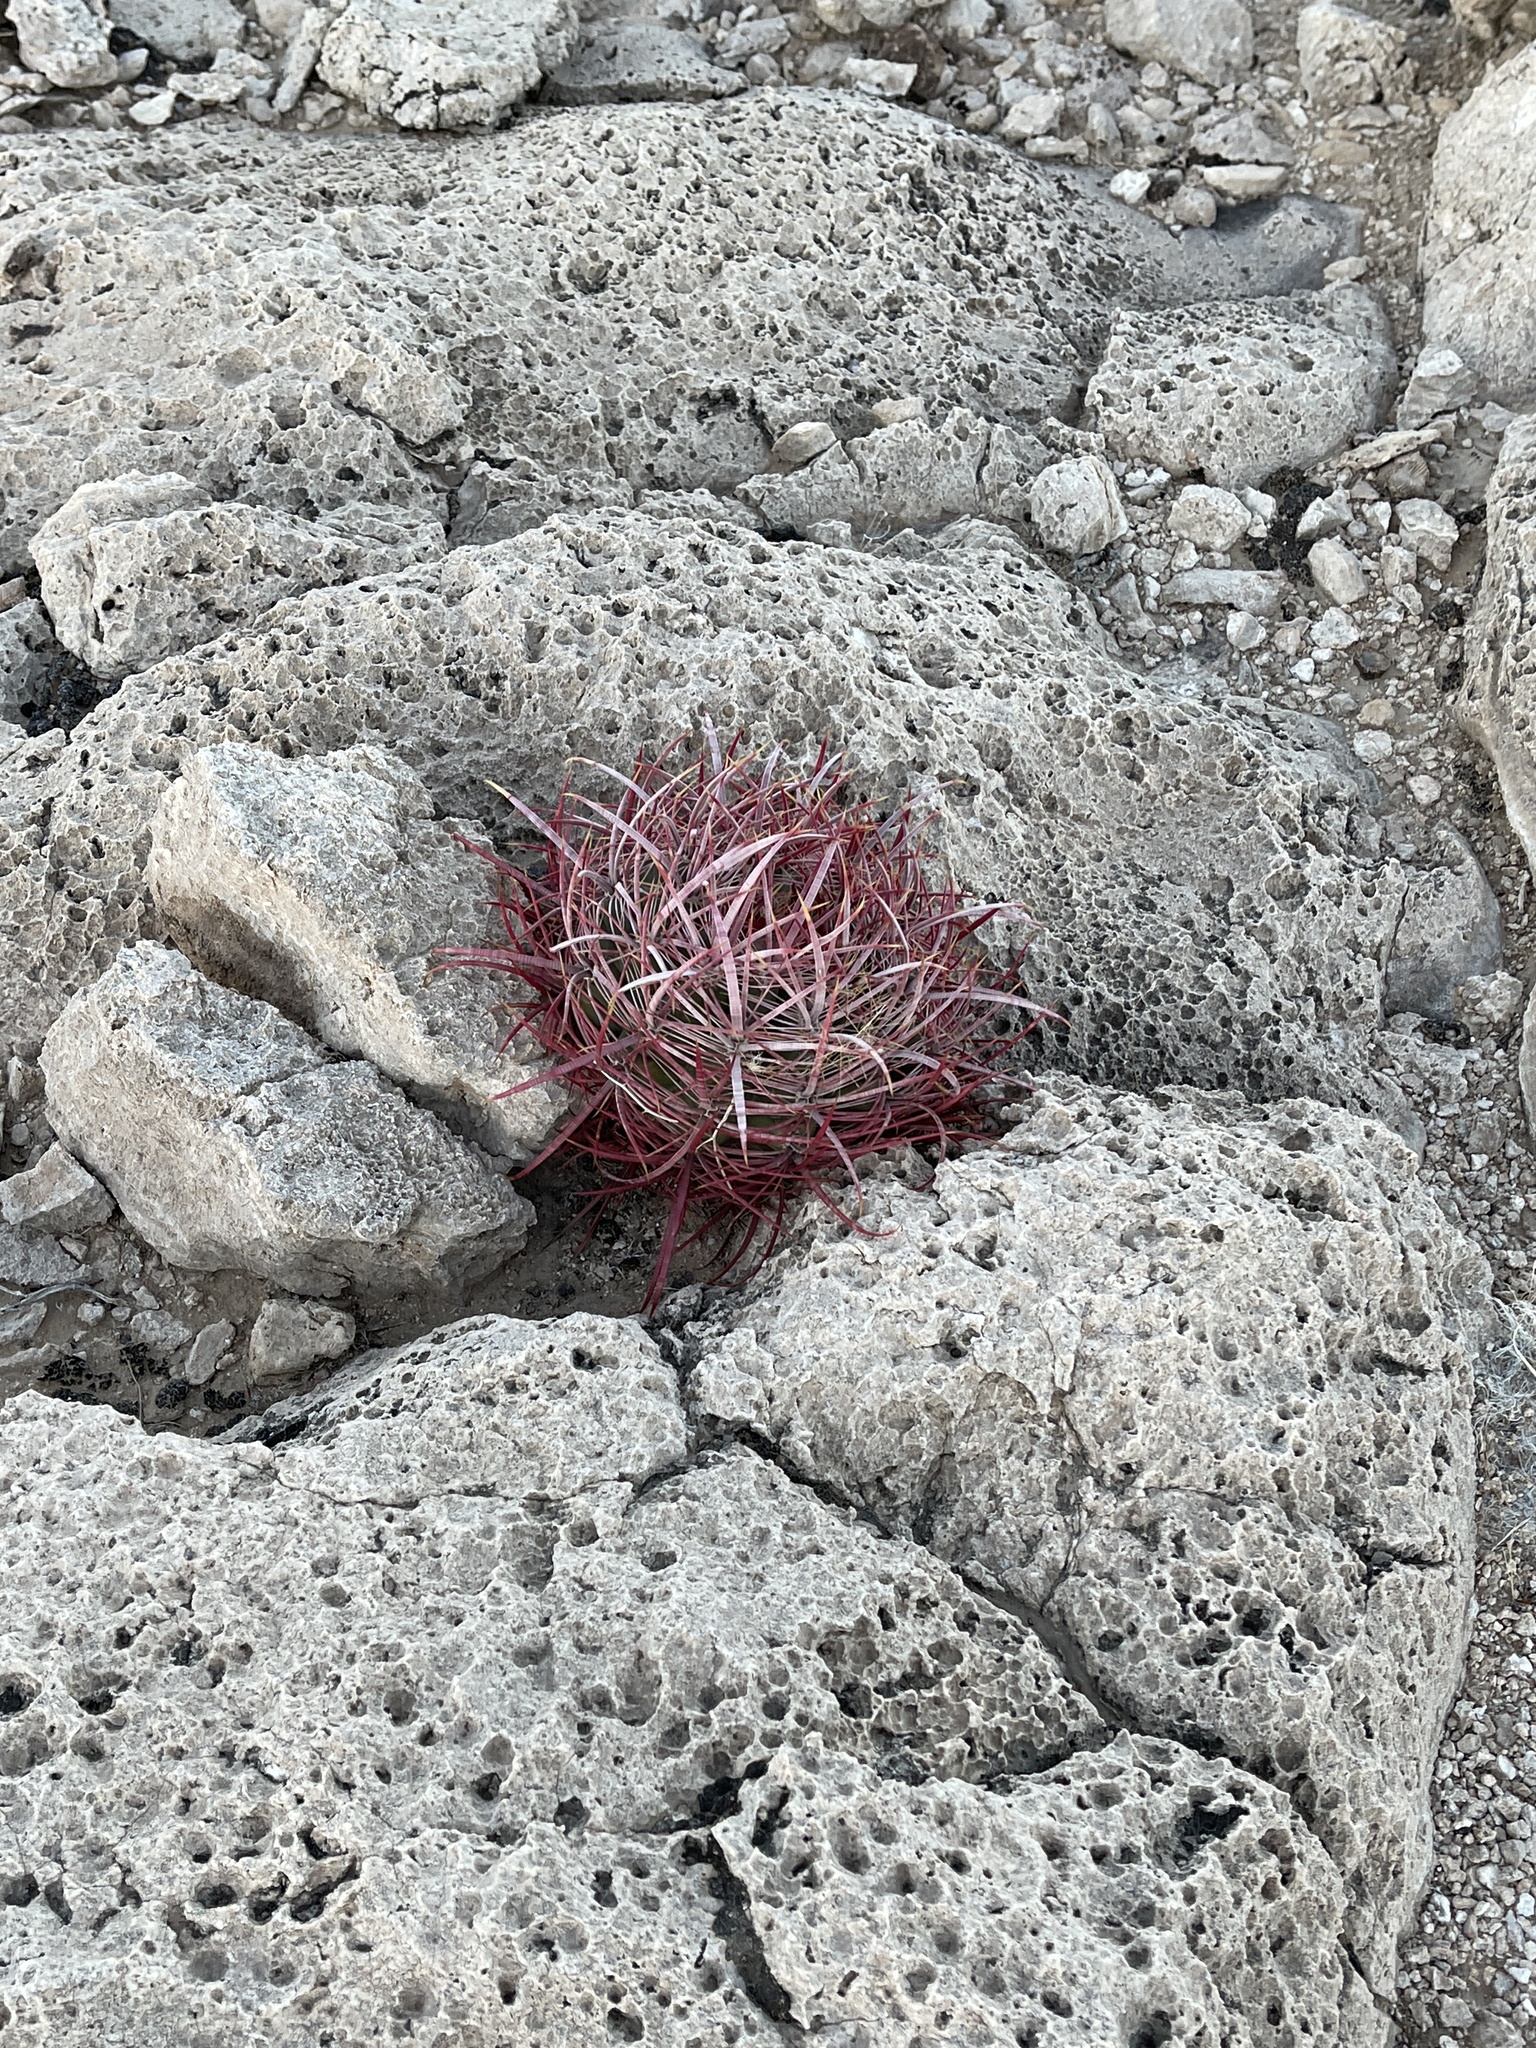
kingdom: Plantae
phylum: Tracheophyta
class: Magnoliopsida
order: Caryophyllales
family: Cactaceae
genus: Ferocactus
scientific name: Ferocactus cylindraceus
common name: California barrel cactus
